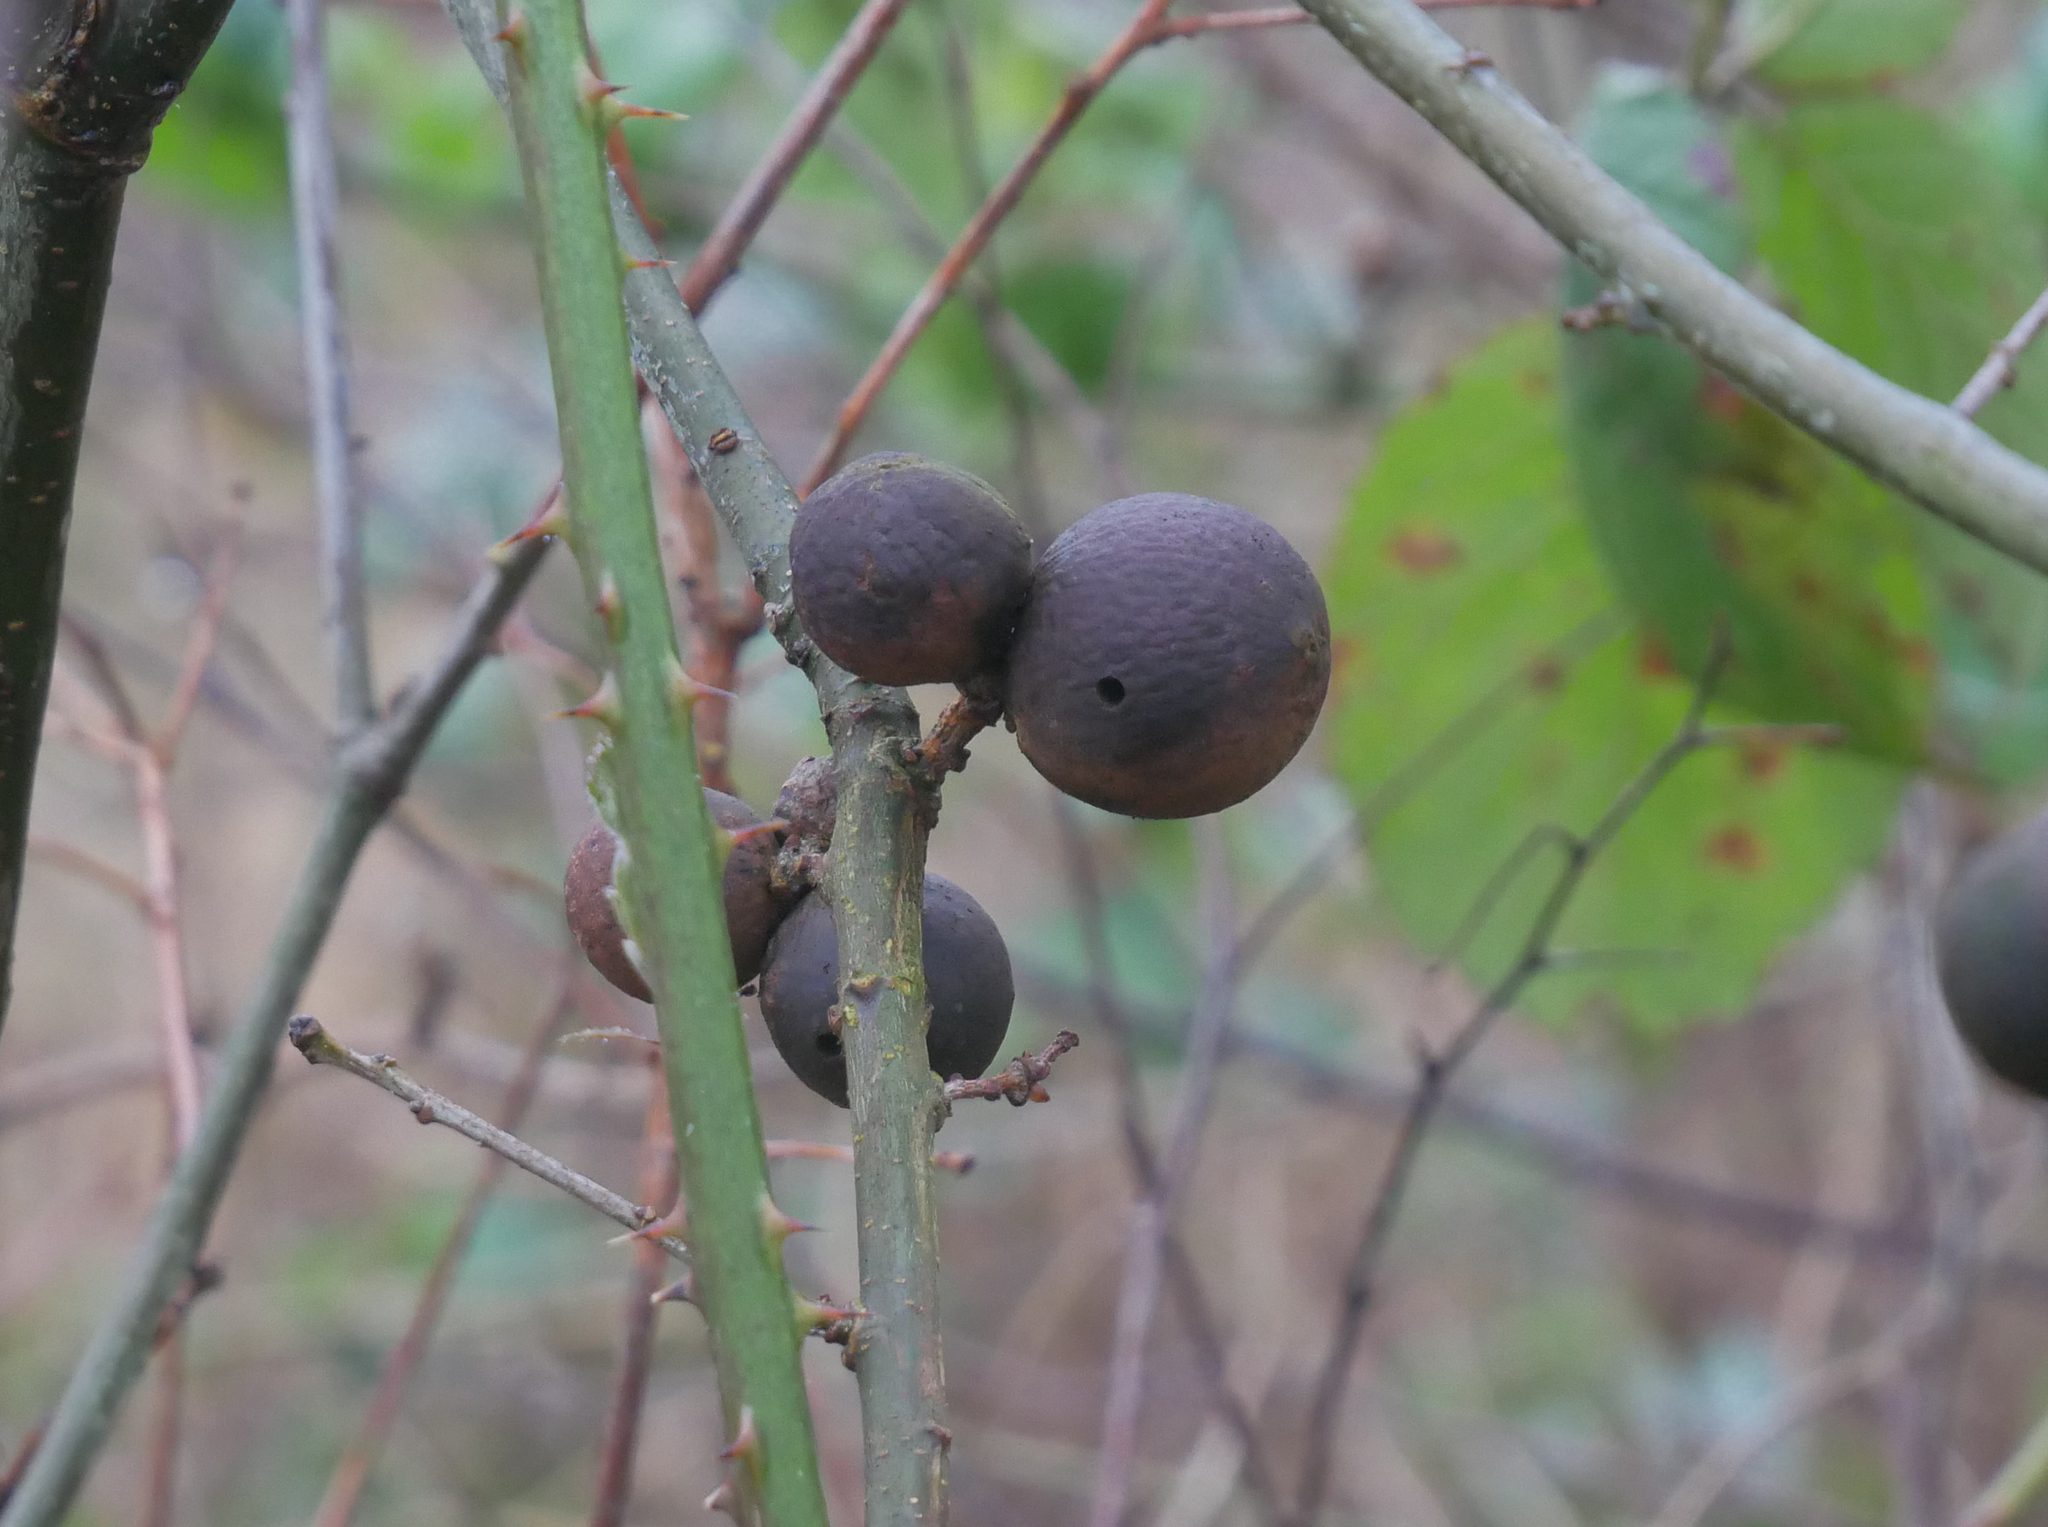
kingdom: Animalia
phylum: Arthropoda
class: Insecta
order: Hymenoptera
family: Cynipidae
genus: Andricus
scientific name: Andricus kollari
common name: Marble gall
